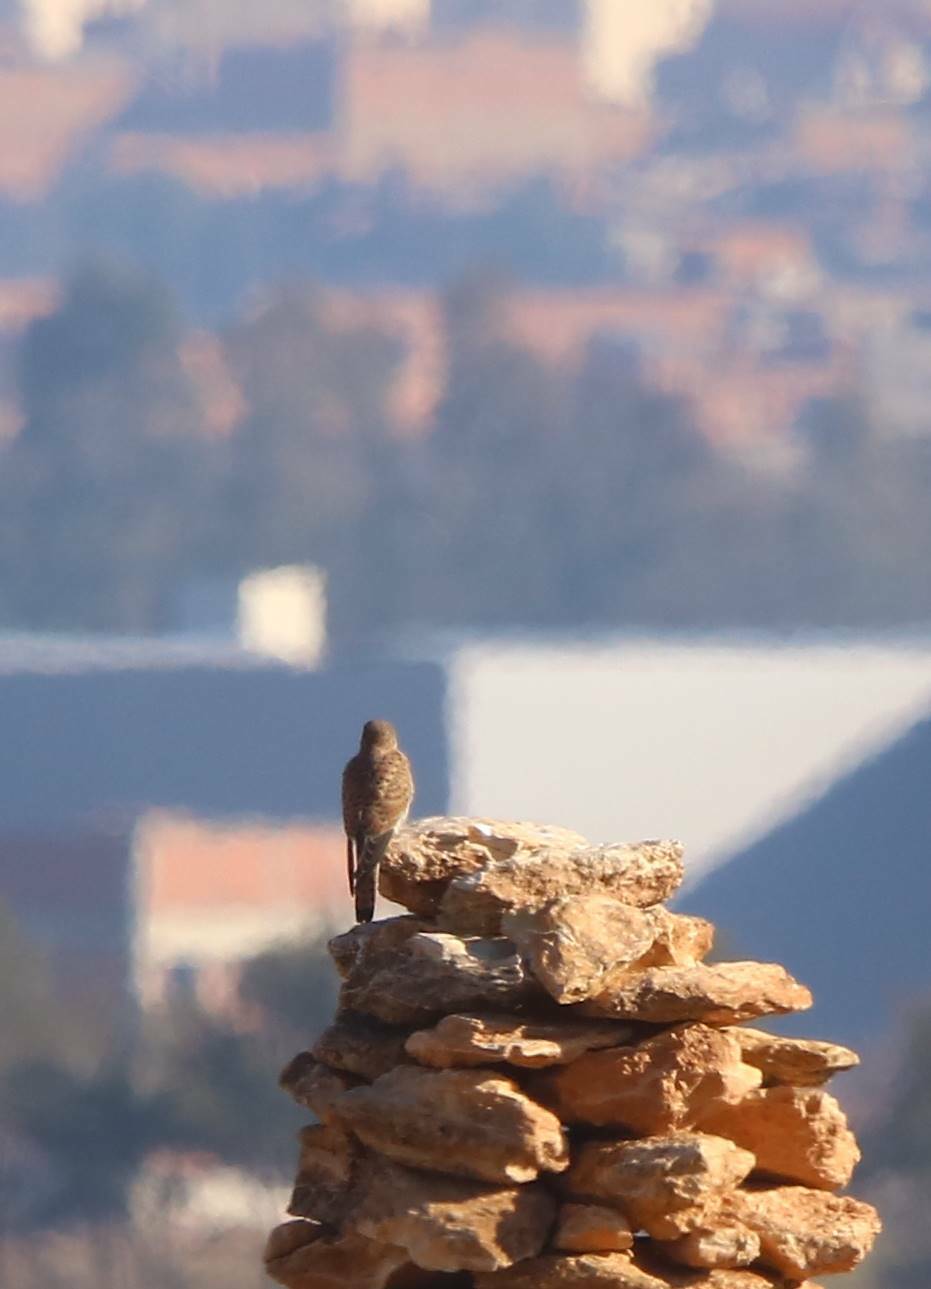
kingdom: Animalia
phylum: Chordata
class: Aves
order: Falconiformes
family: Falconidae
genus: Falco
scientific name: Falco tinnunculus
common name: Common kestrel
